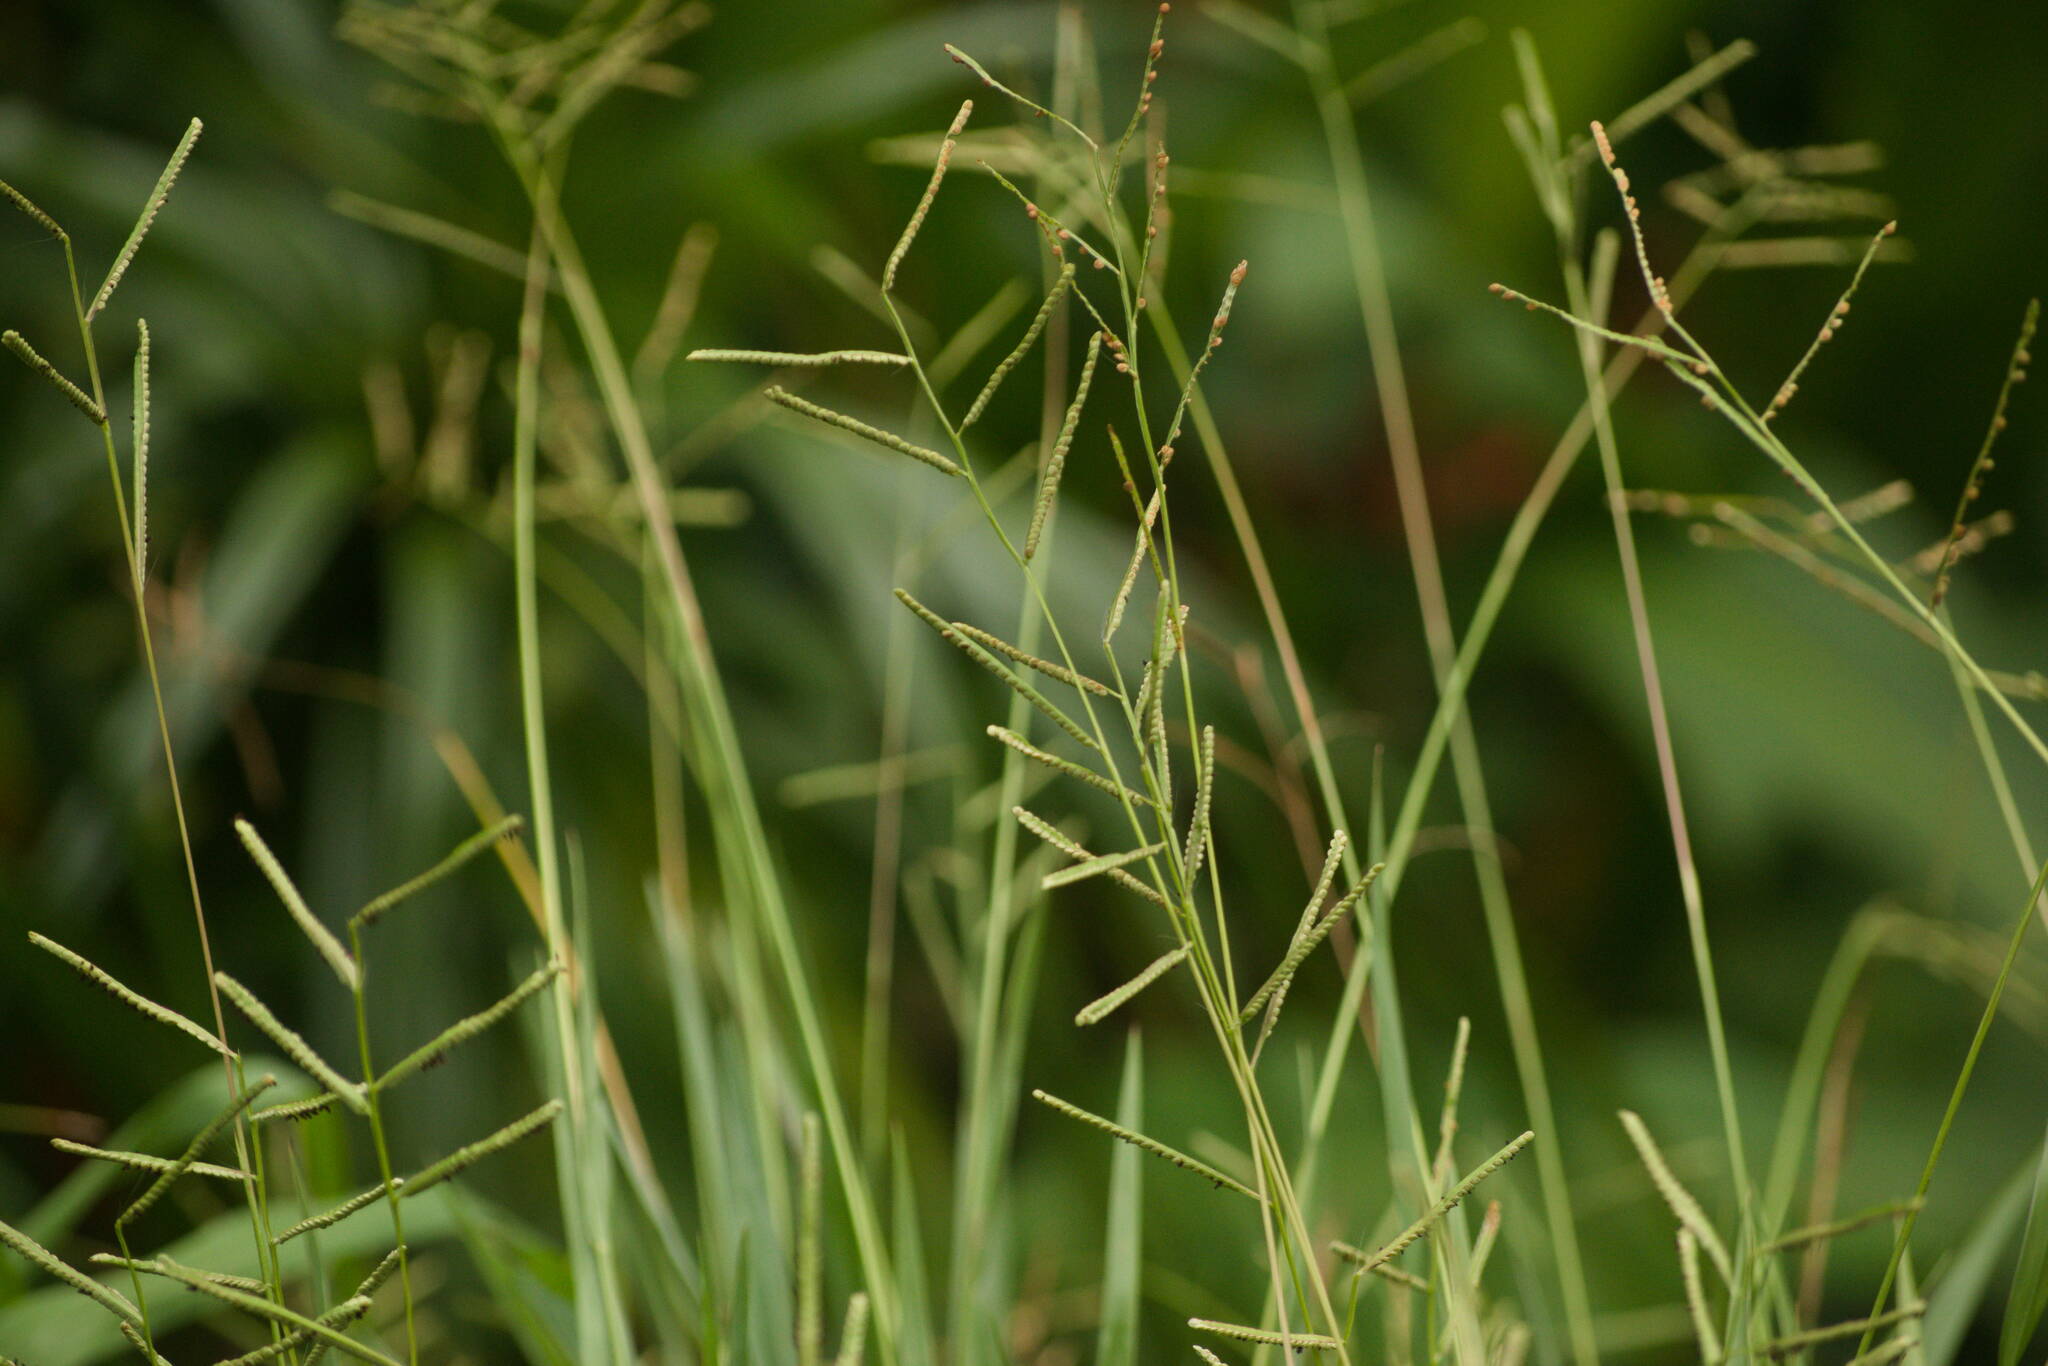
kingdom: Plantae
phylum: Tracheophyta
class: Liliopsida
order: Poales
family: Poaceae
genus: Paspalum
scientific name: Paspalum scrobiculatum
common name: Kodo millet
